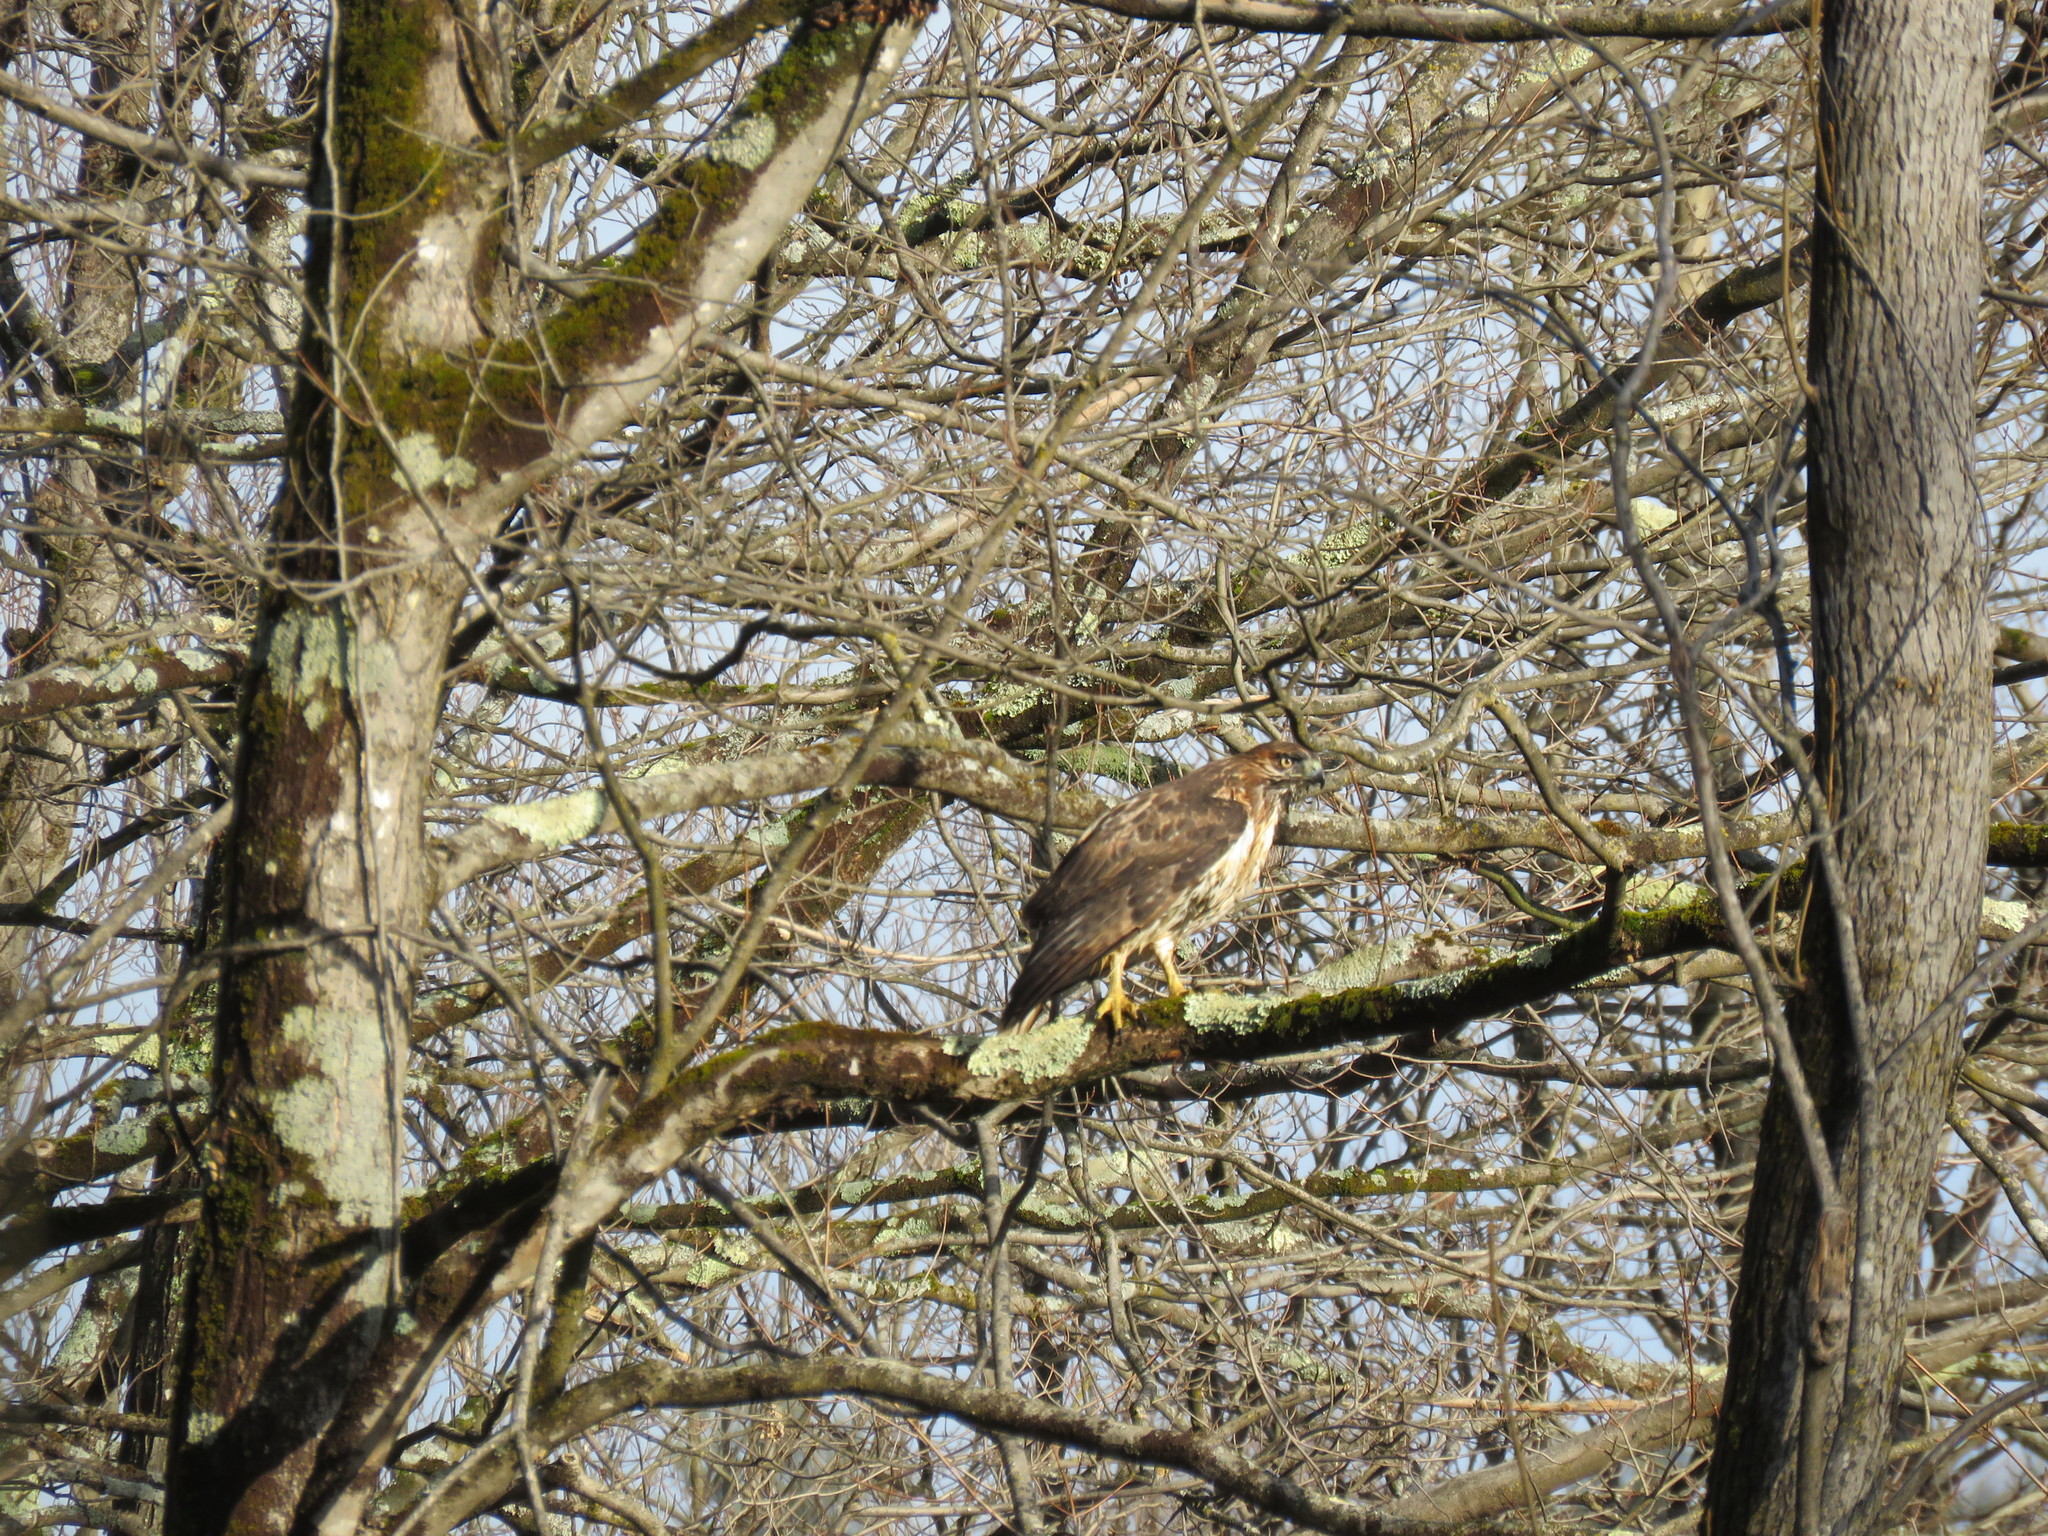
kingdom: Animalia
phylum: Chordata
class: Aves
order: Accipitriformes
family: Accipitridae
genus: Buteo
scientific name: Buteo jamaicensis
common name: Red-tailed hawk
